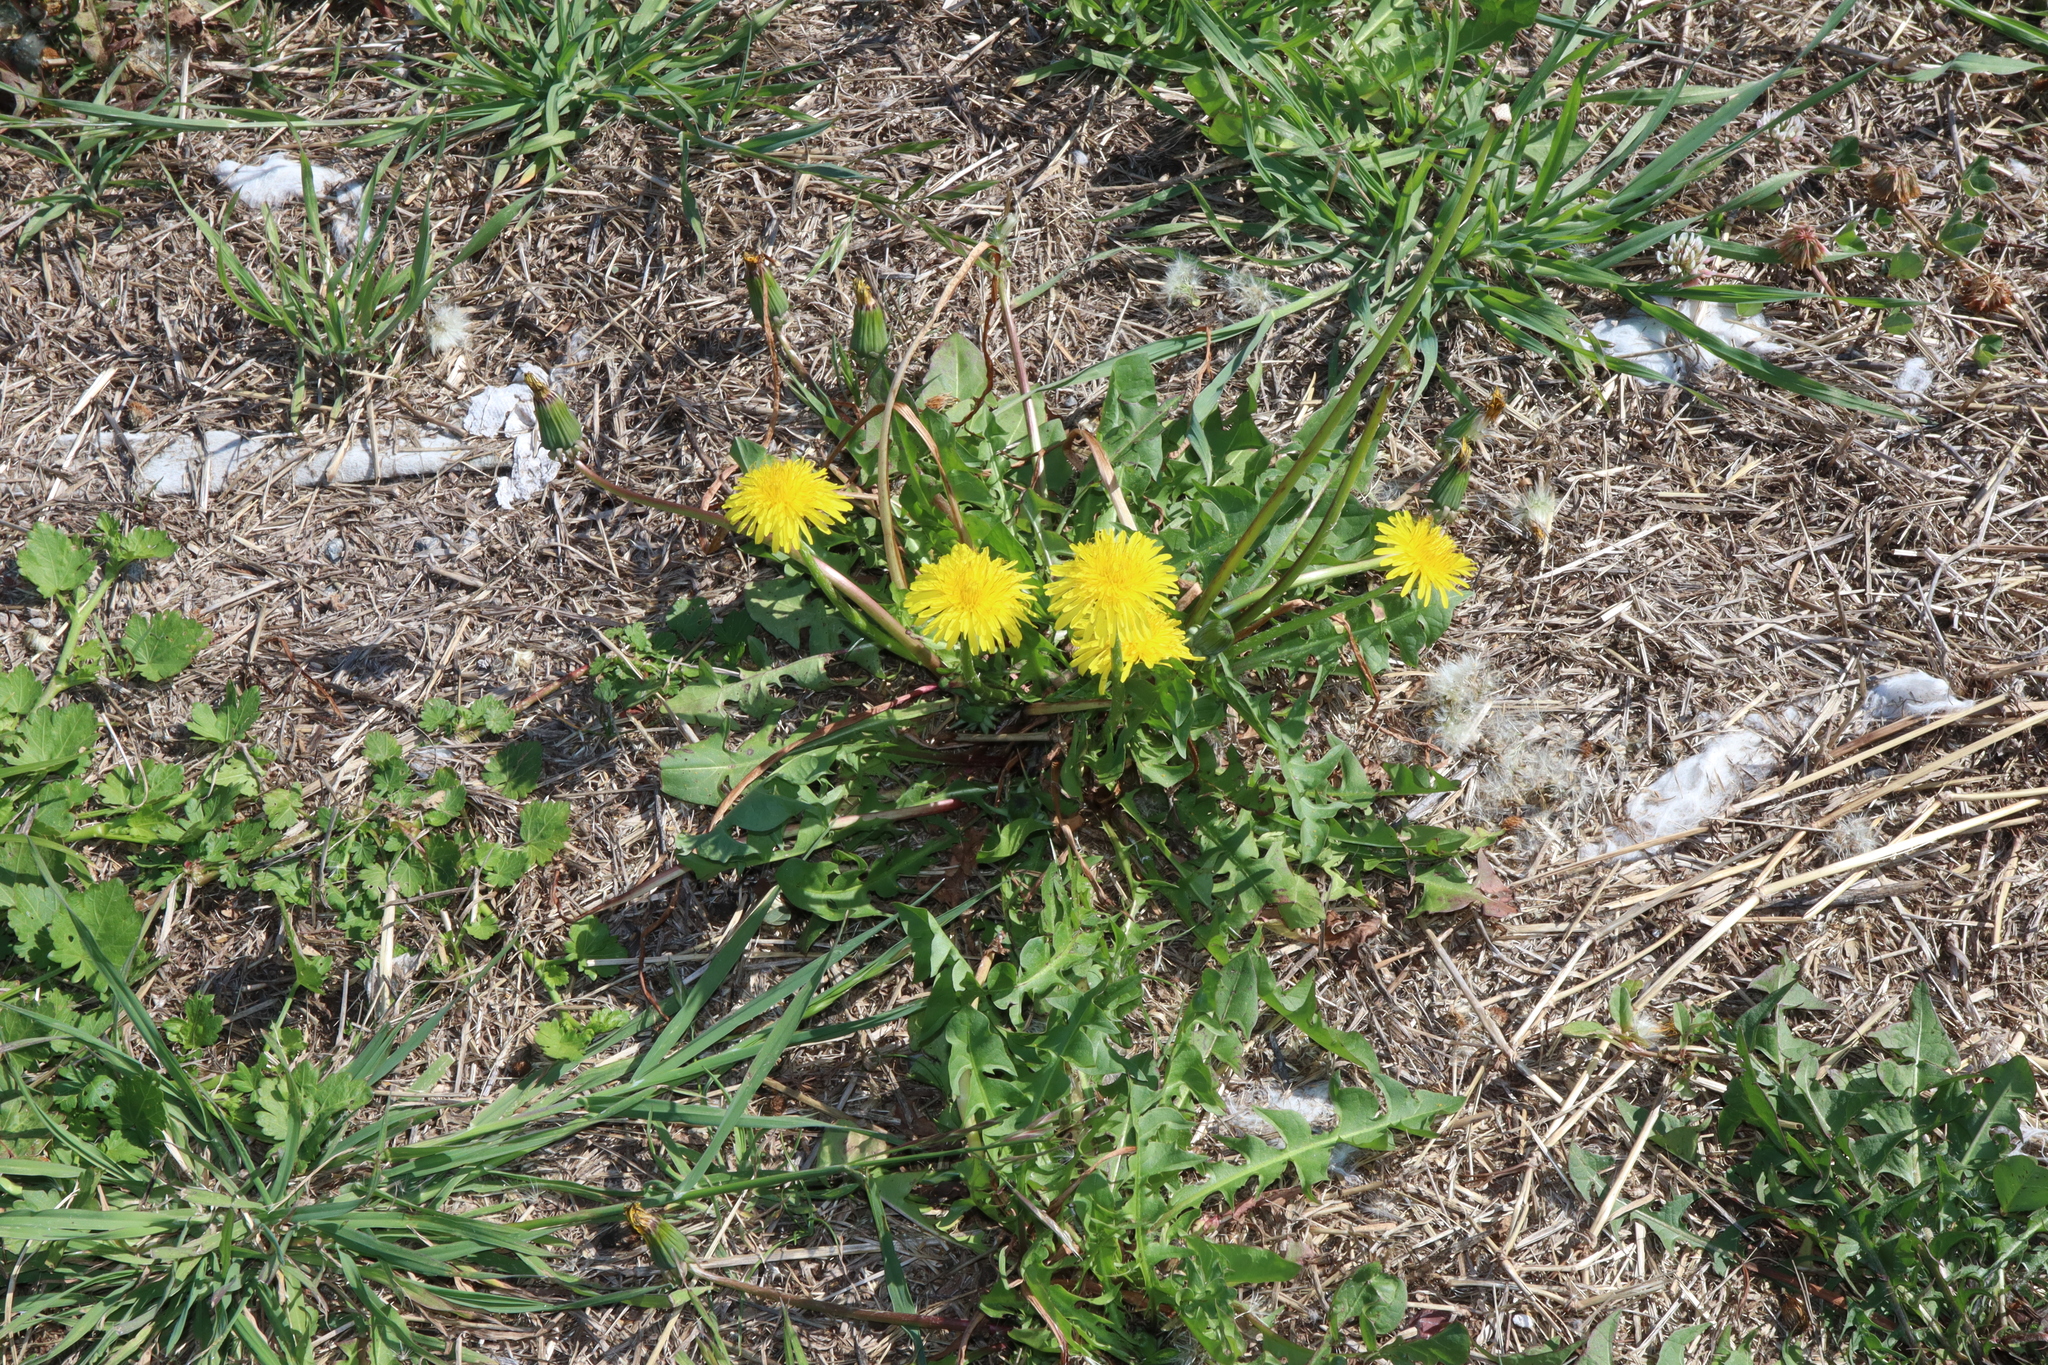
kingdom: Plantae
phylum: Tracheophyta
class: Magnoliopsida
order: Asterales
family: Asteraceae
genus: Taraxacum
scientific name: Taraxacum officinale
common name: Common dandelion
